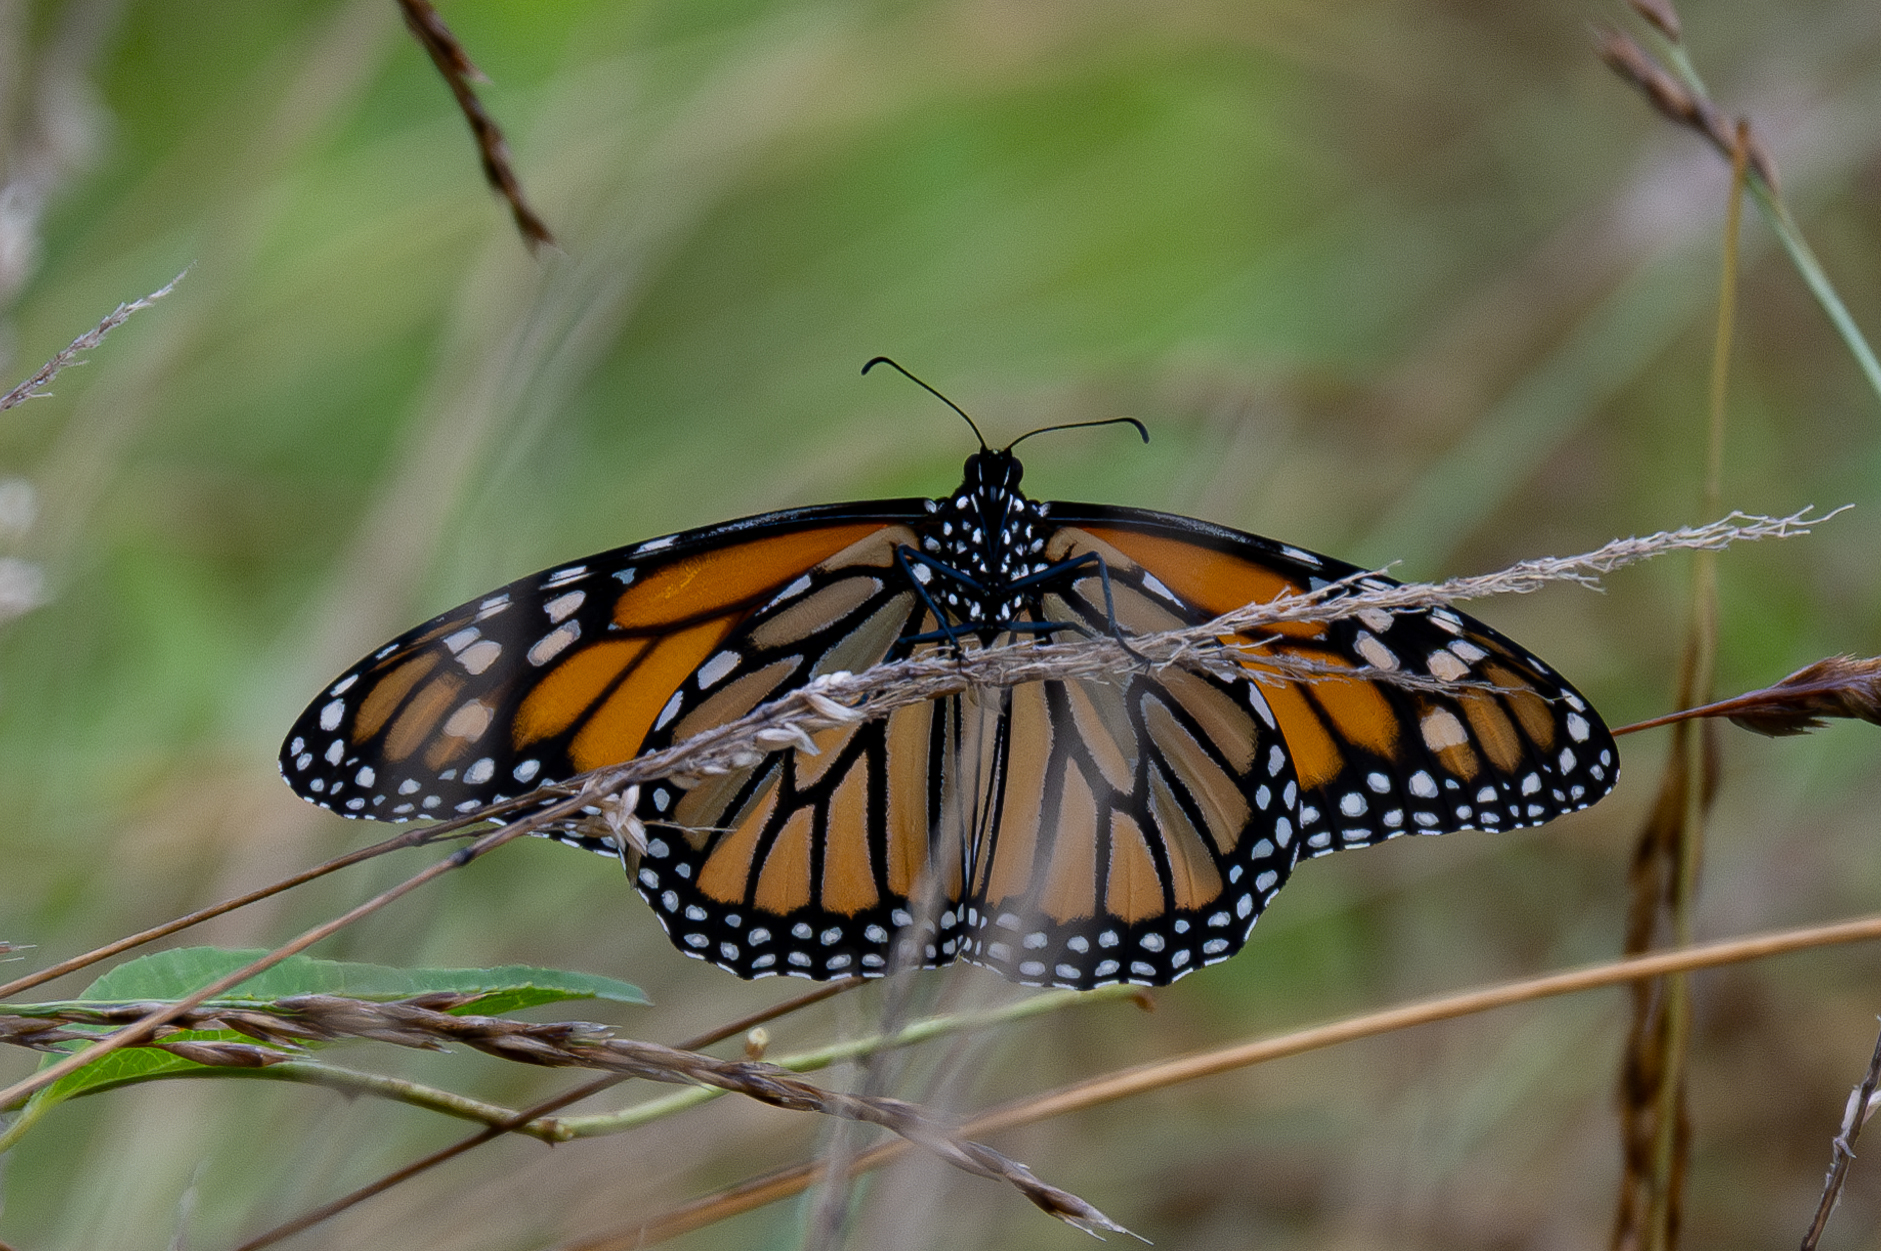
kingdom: Animalia
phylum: Arthropoda
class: Insecta
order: Lepidoptera
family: Nymphalidae
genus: Danaus
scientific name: Danaus plexippus
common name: Monarch
